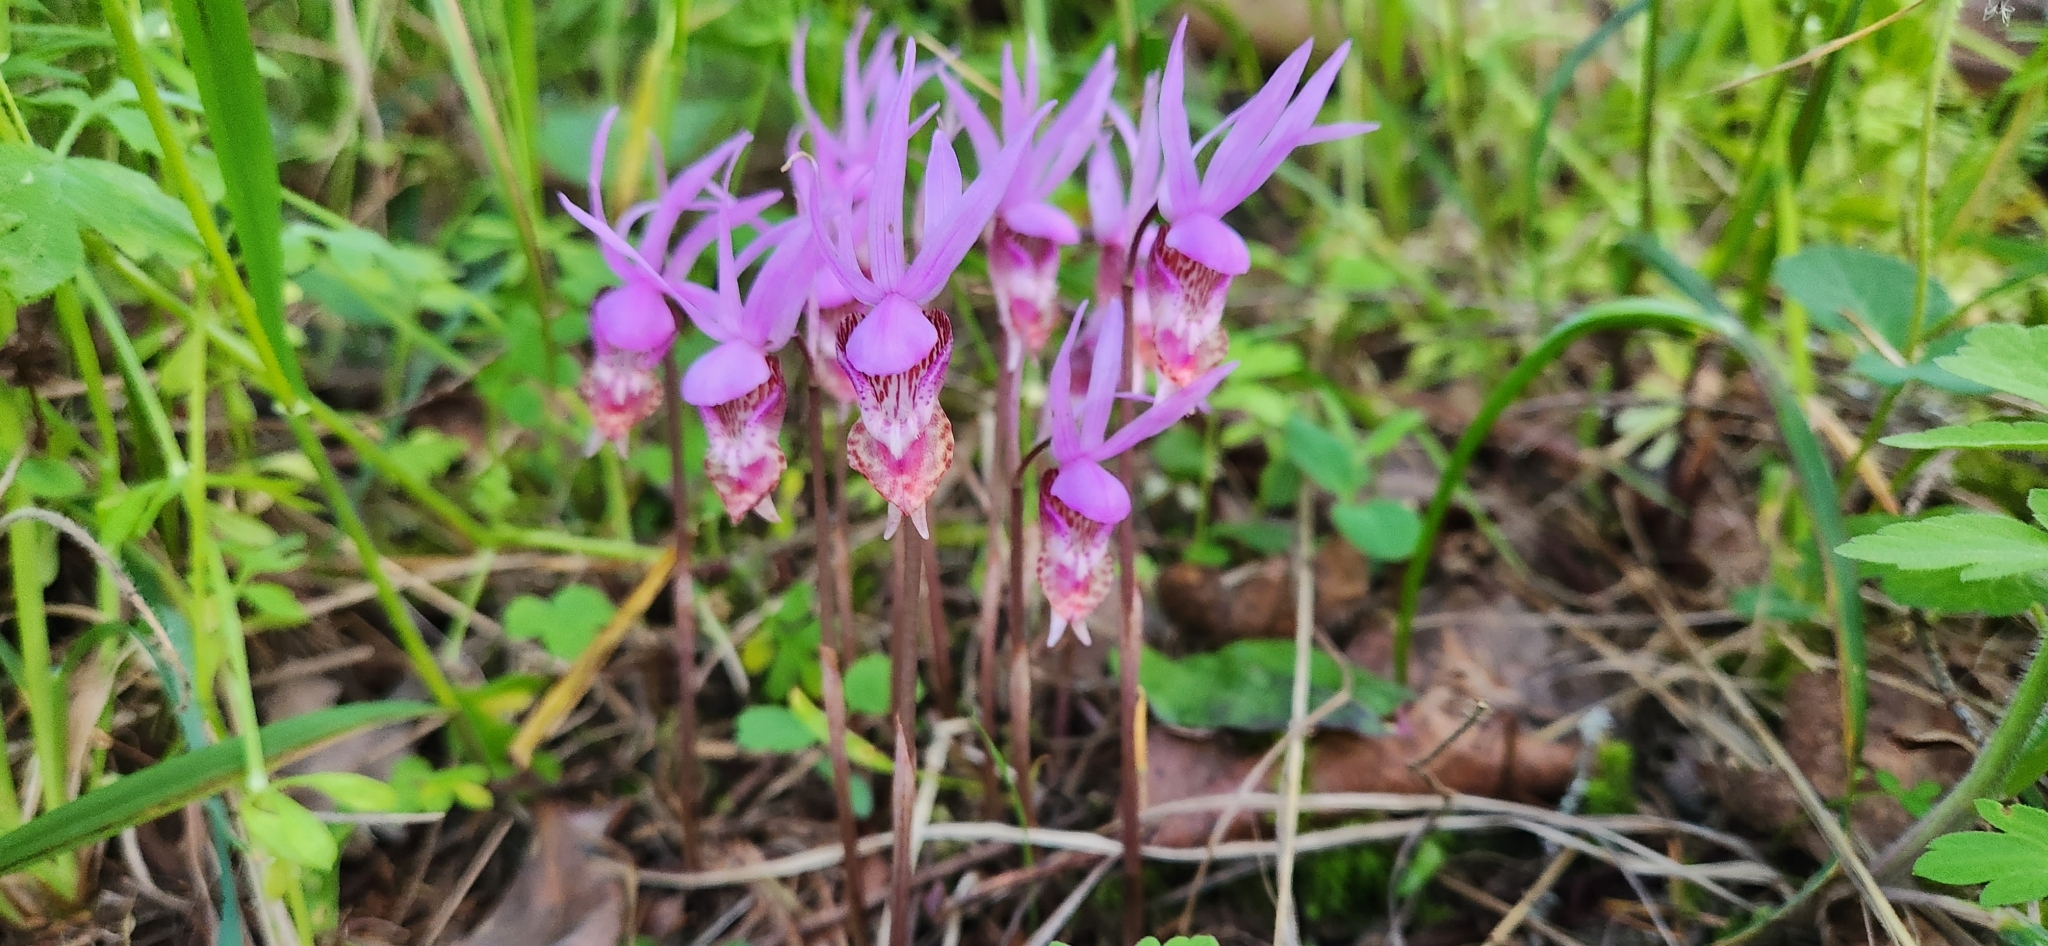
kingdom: Plantae
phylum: Tracheophyta
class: Liliopsida
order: Asparagales
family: Orchidaceae
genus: Calypso
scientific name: Calypso bulbosa
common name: Calypso
